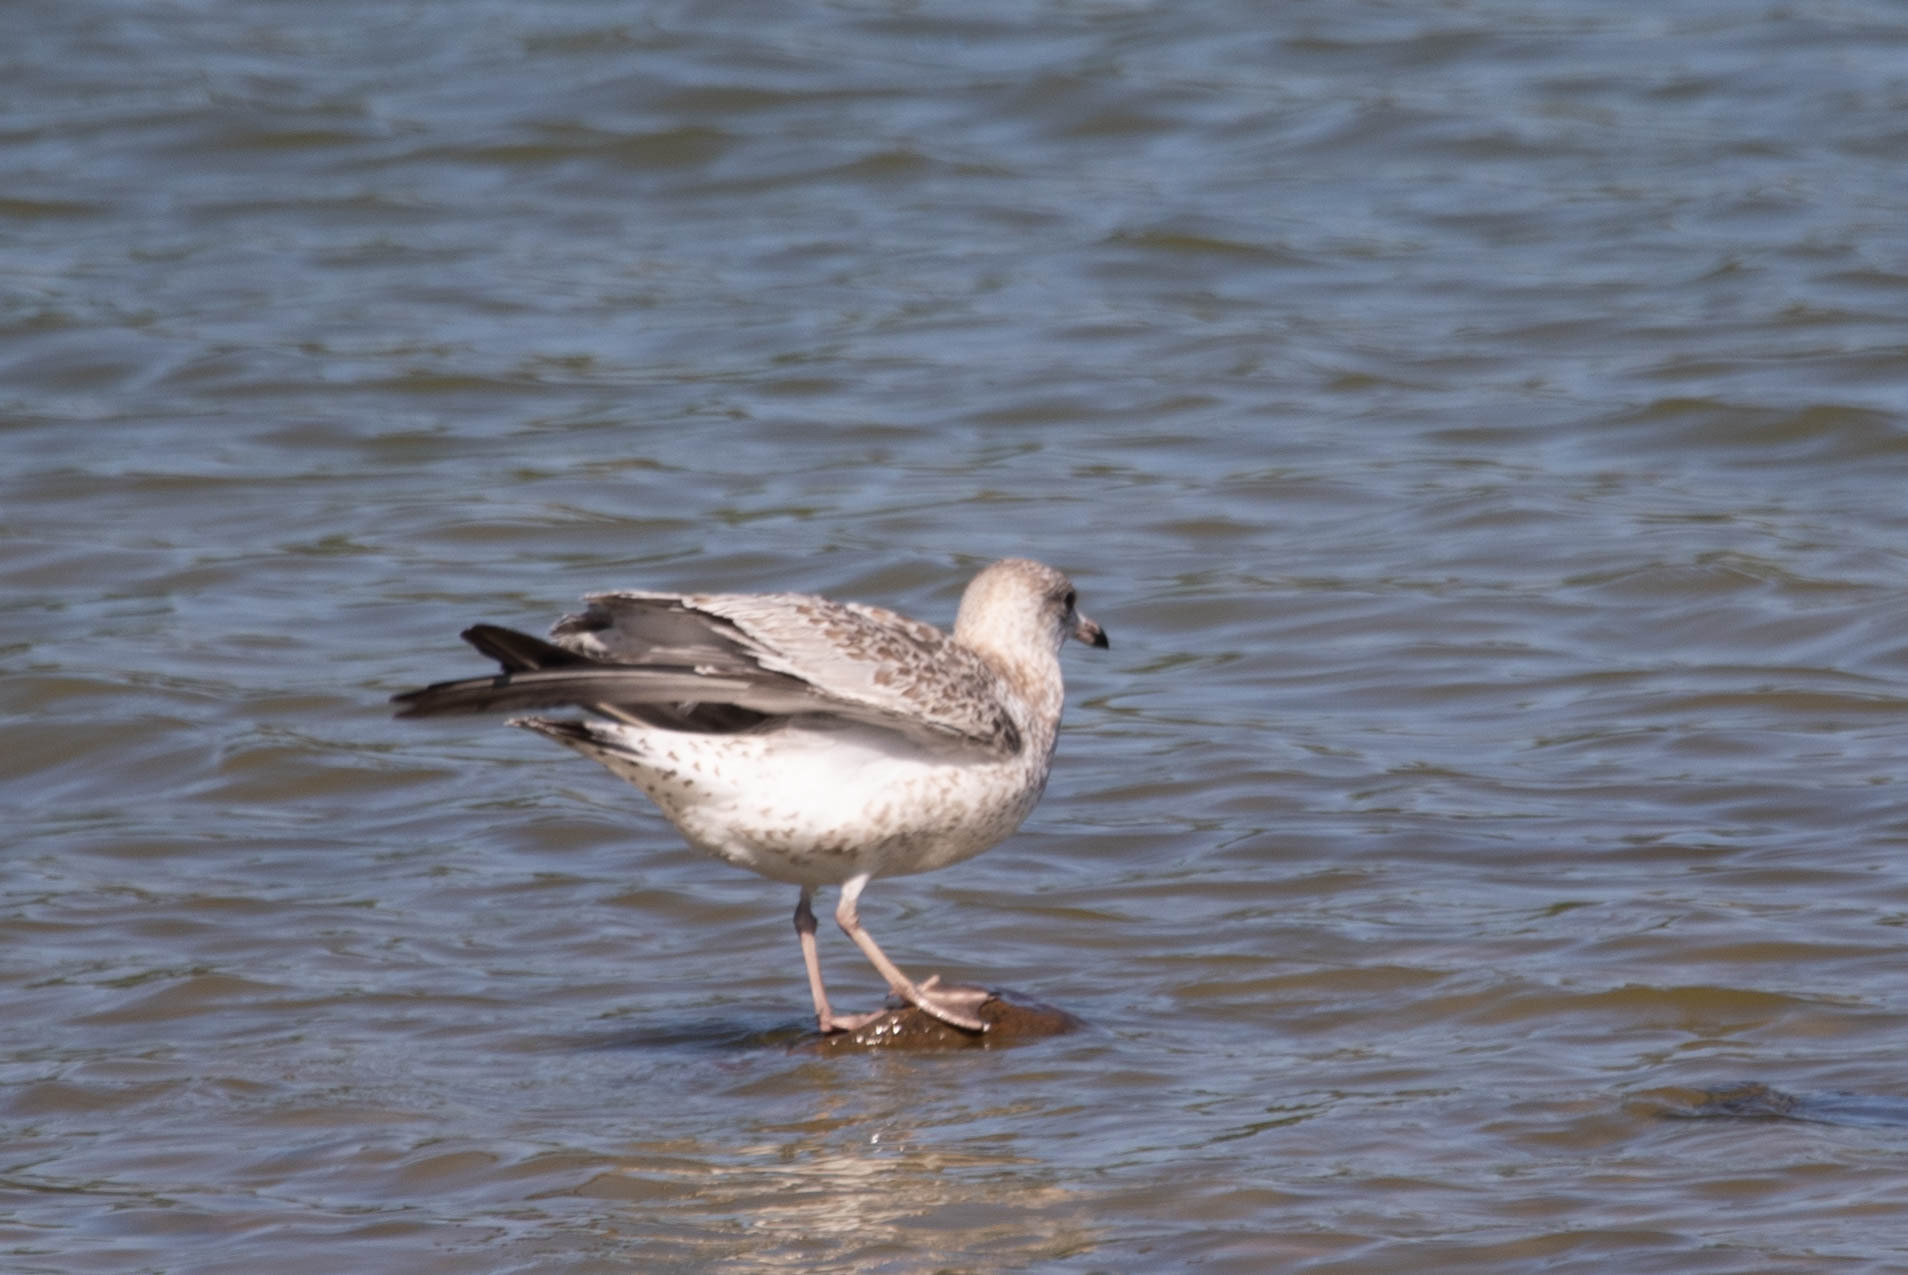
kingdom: Animalia
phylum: Chordata
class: Aves
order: Charadriiformes
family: Laridae
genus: Larus
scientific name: Larus argentatus
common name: Herring gull
